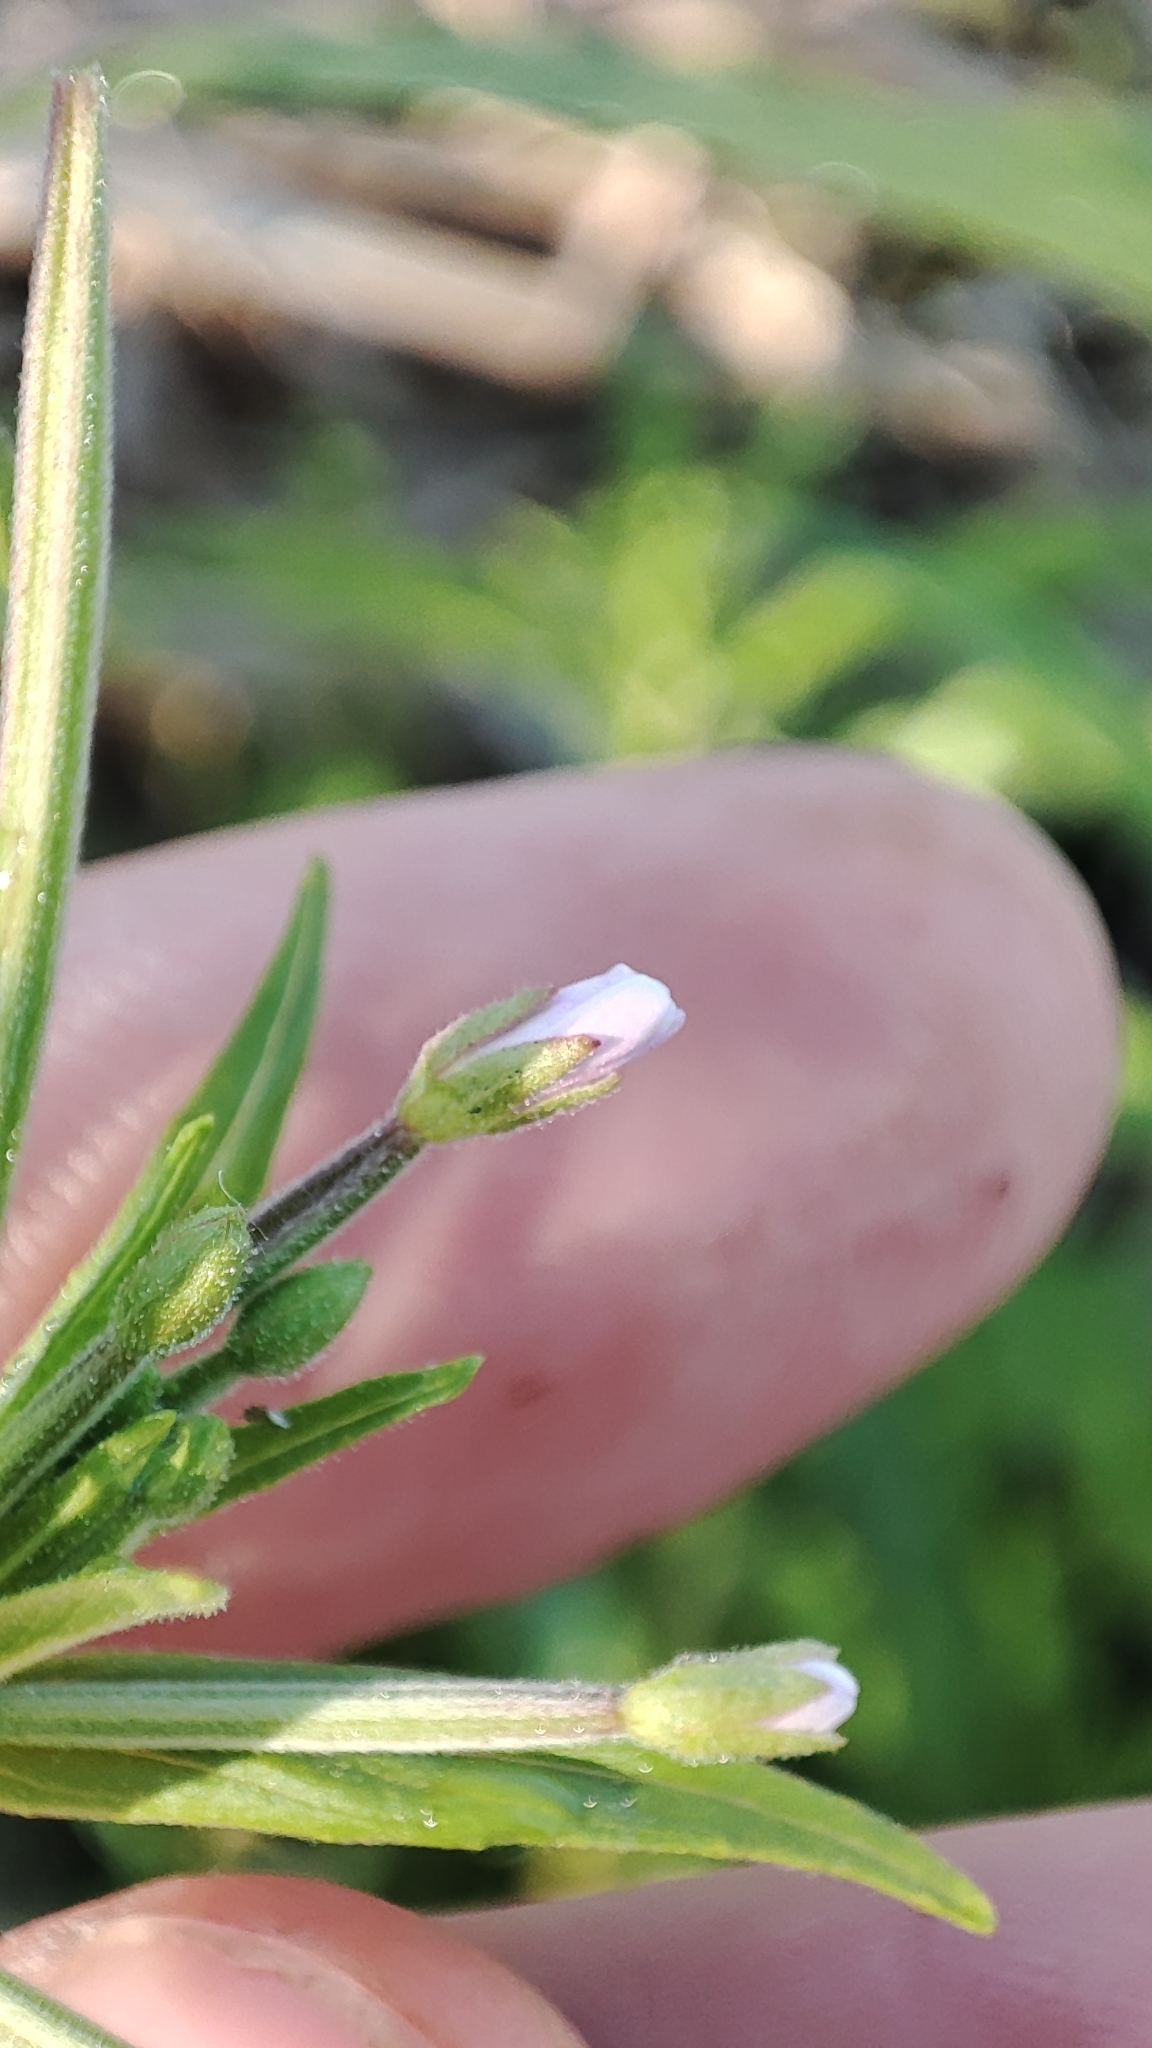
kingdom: Plantae
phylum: Tracheophyta
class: Magnoliopsida
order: Myrtales
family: Onagraceae
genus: Epilobium
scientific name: Epilobium palustre
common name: Marsh willowherb
